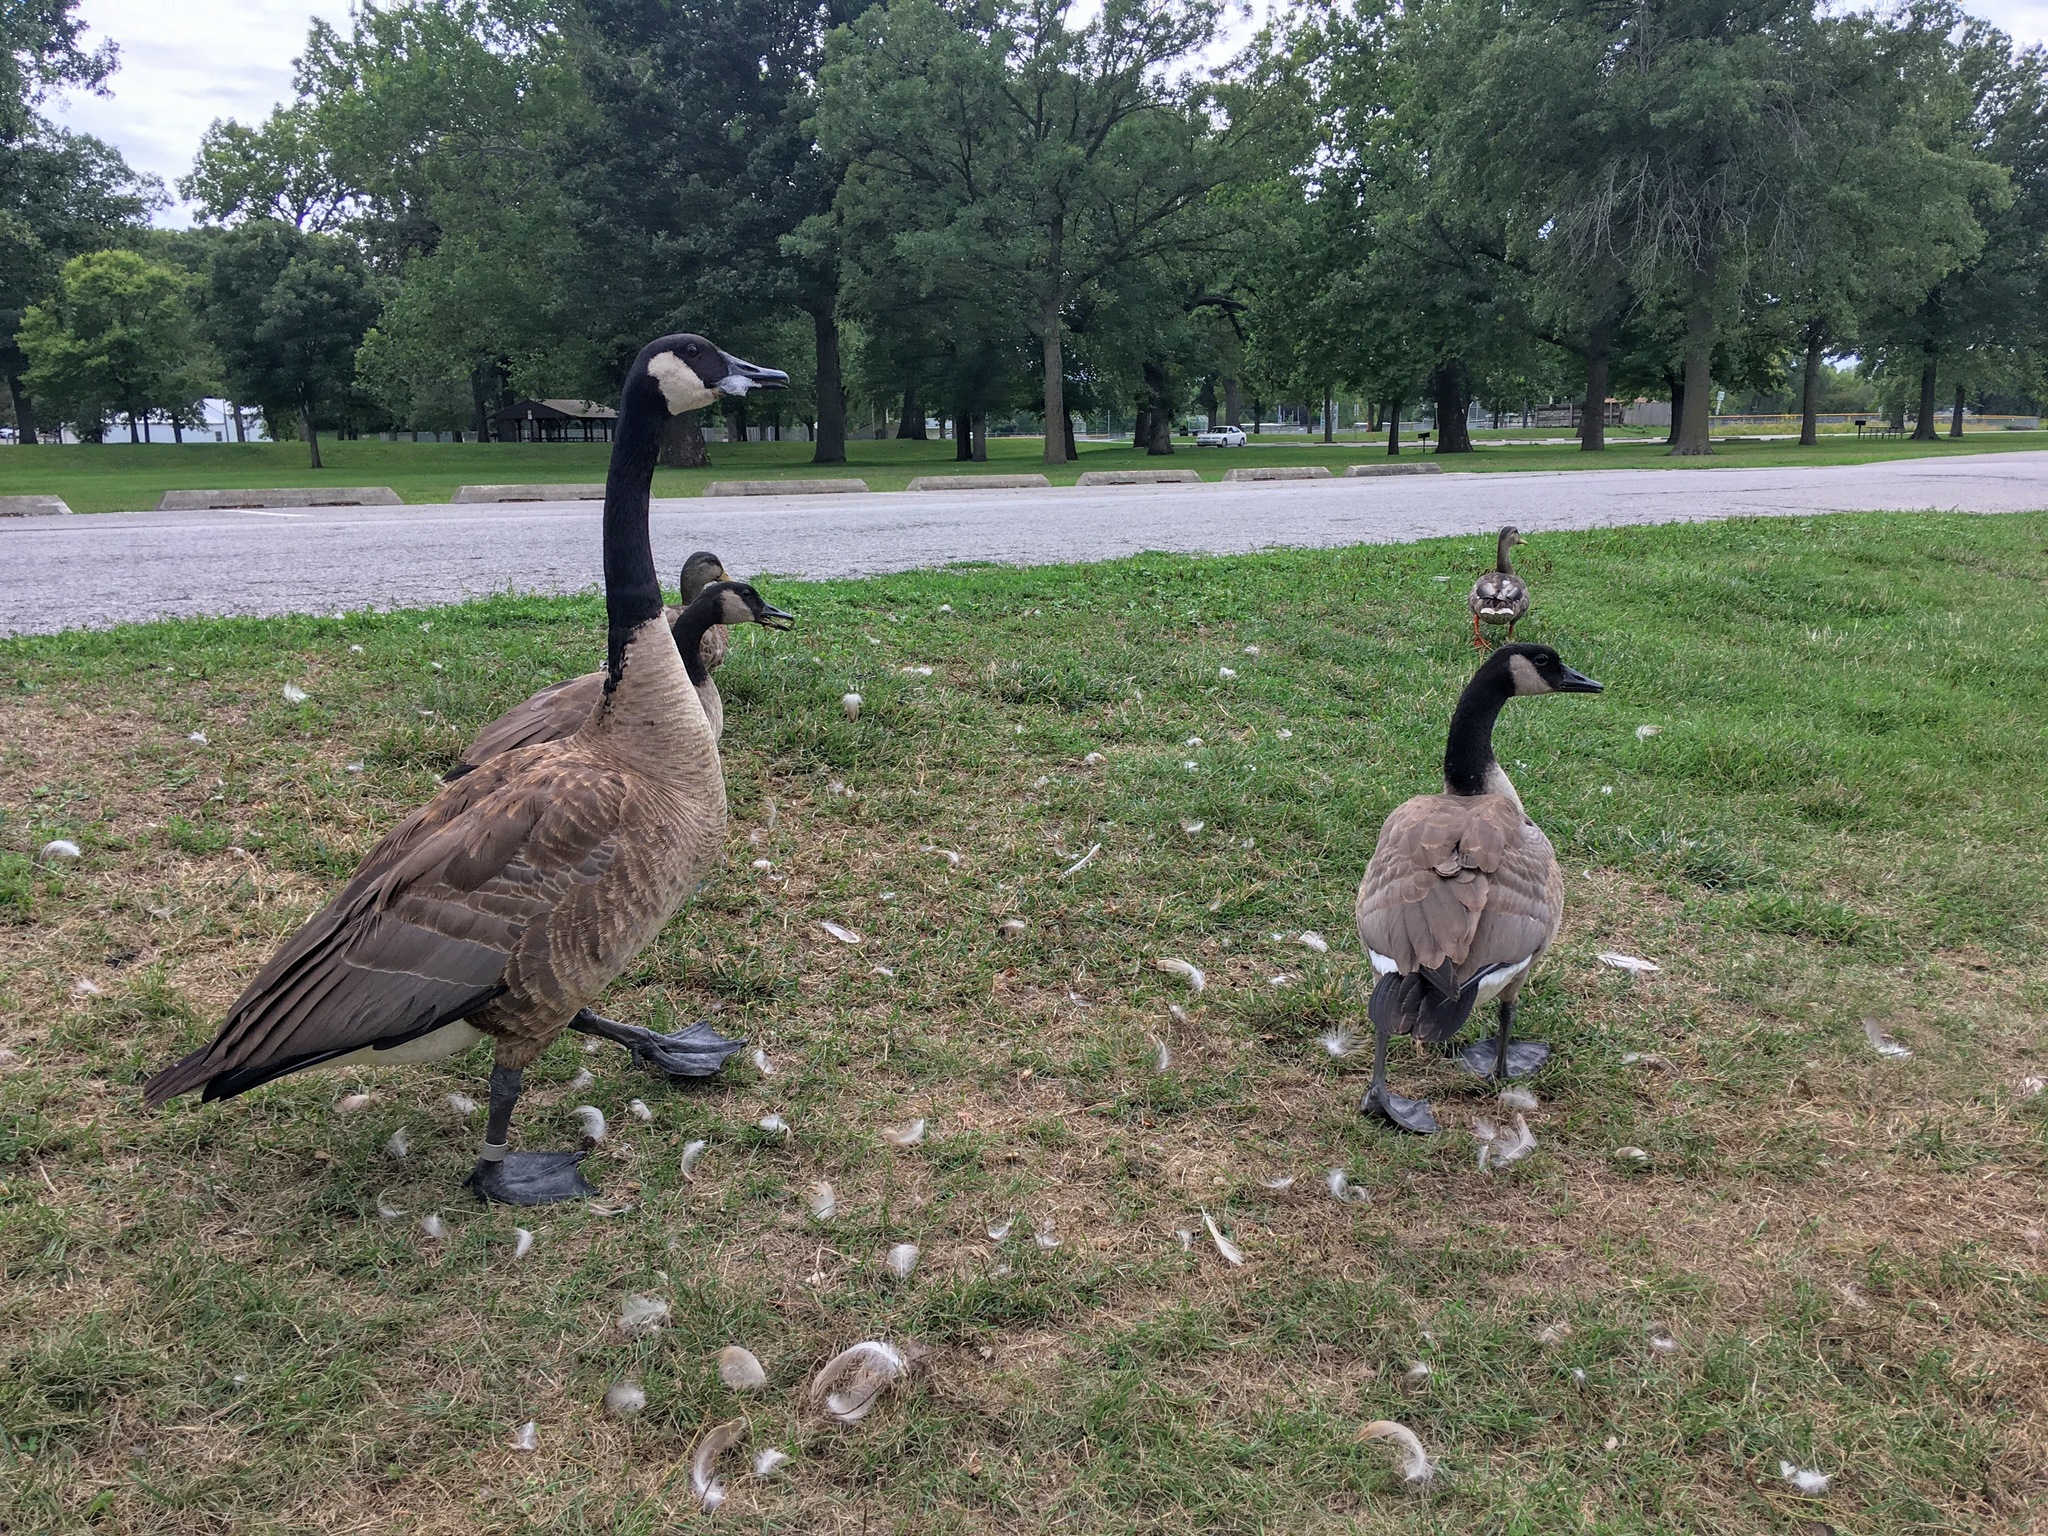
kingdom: Animalia
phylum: Chordata
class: Aves
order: Anseriformes
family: Anatidae
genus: Branta
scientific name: Branta canadensis
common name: Canada goose
